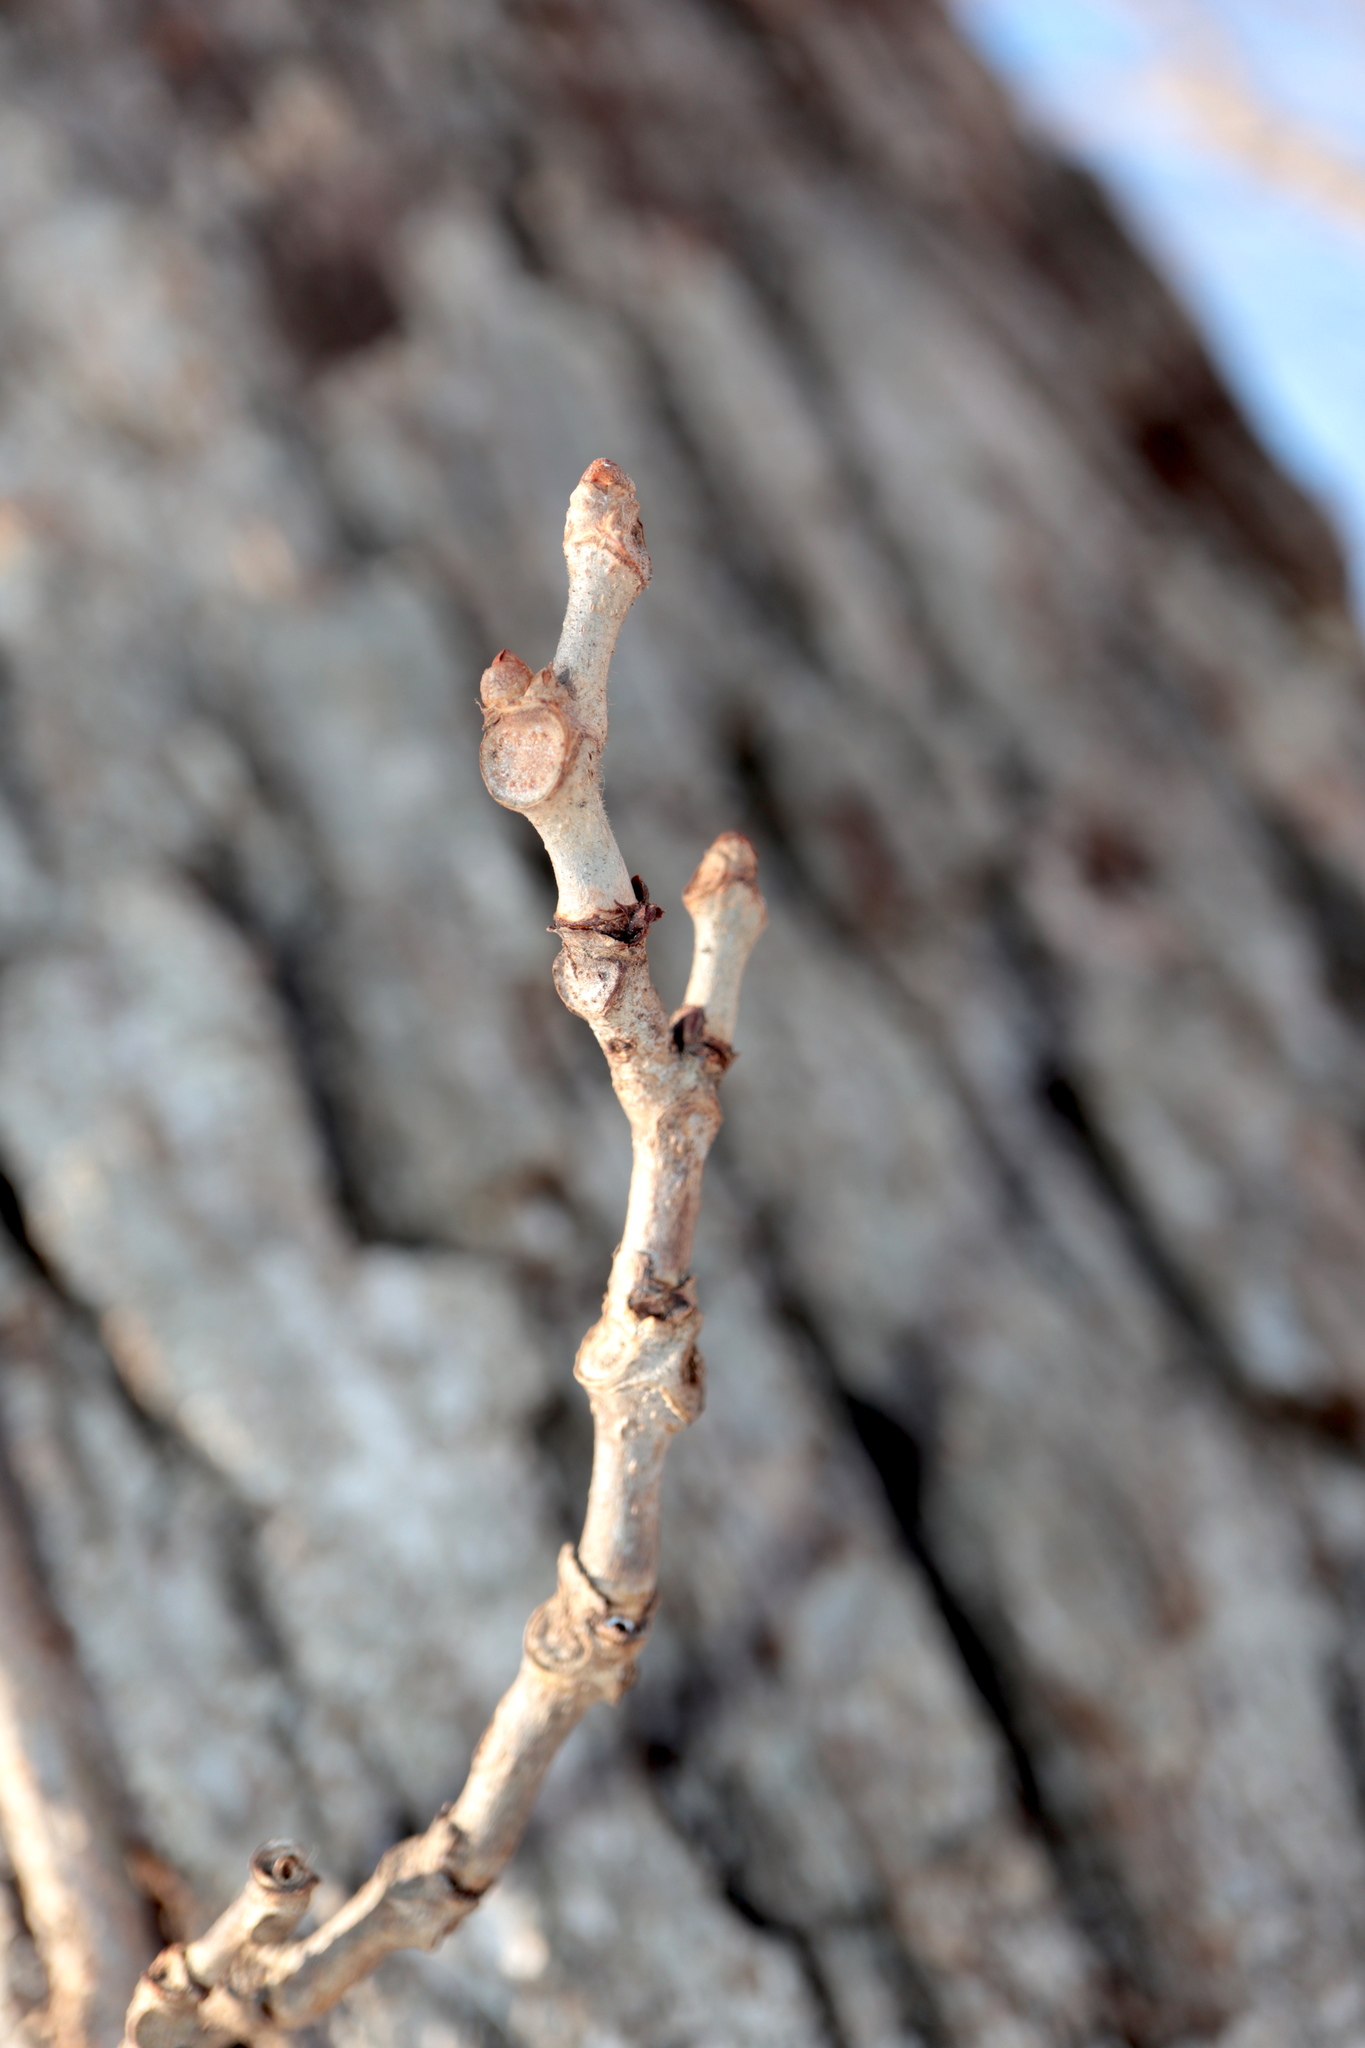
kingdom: Plantae
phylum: Tracheophyta
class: Magnoliopsida
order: Vitales
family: Vitaceae
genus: Parthenocissus
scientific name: Parthenocissus quinquefolia
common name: Virginia-creeper
